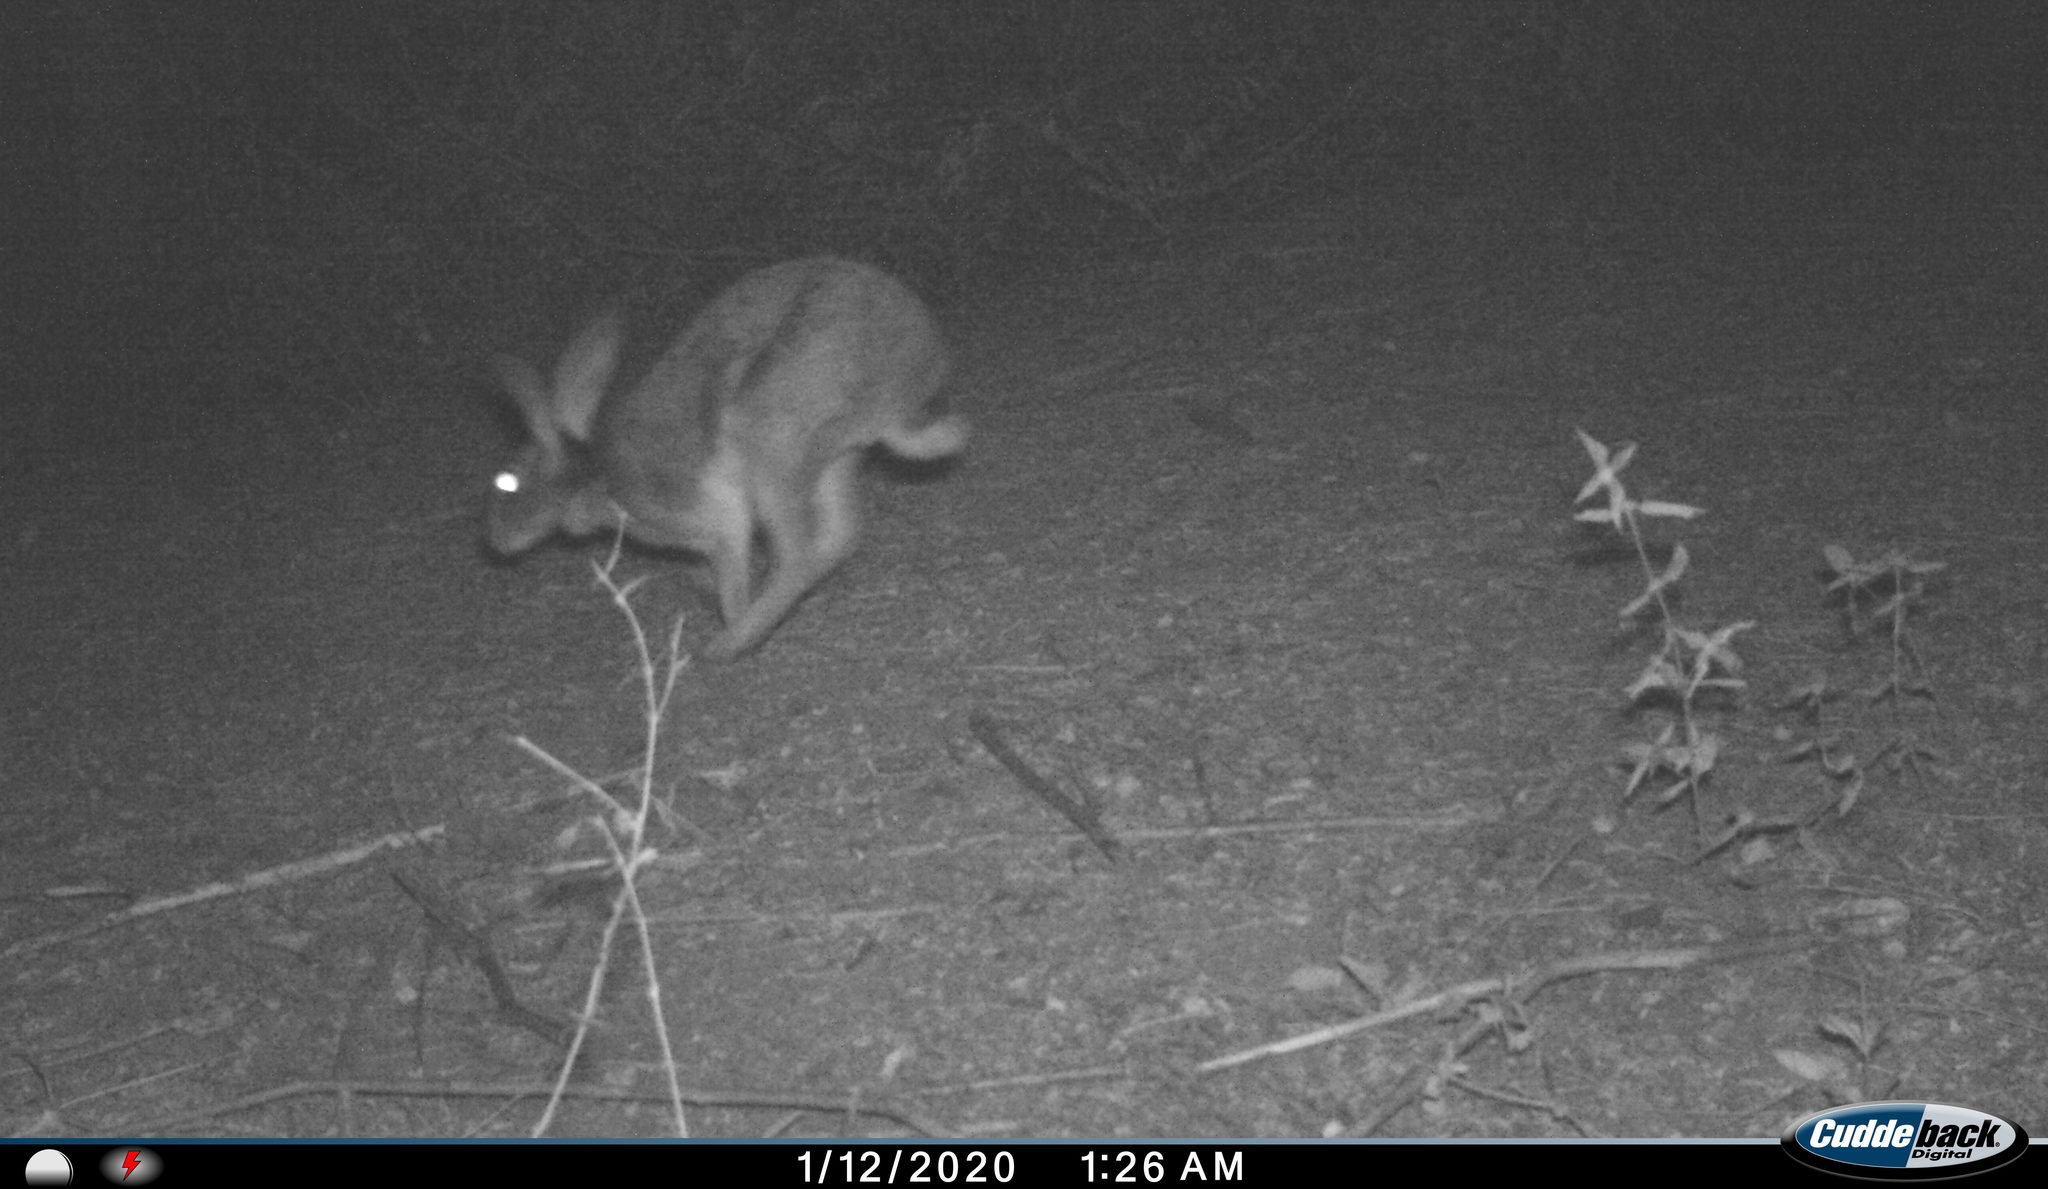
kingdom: Animalia
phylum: Chordata
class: Mammalia
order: Lagomorpha
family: Leporidae
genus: Lepus
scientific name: Lepus nigricollis
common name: Indian hare
